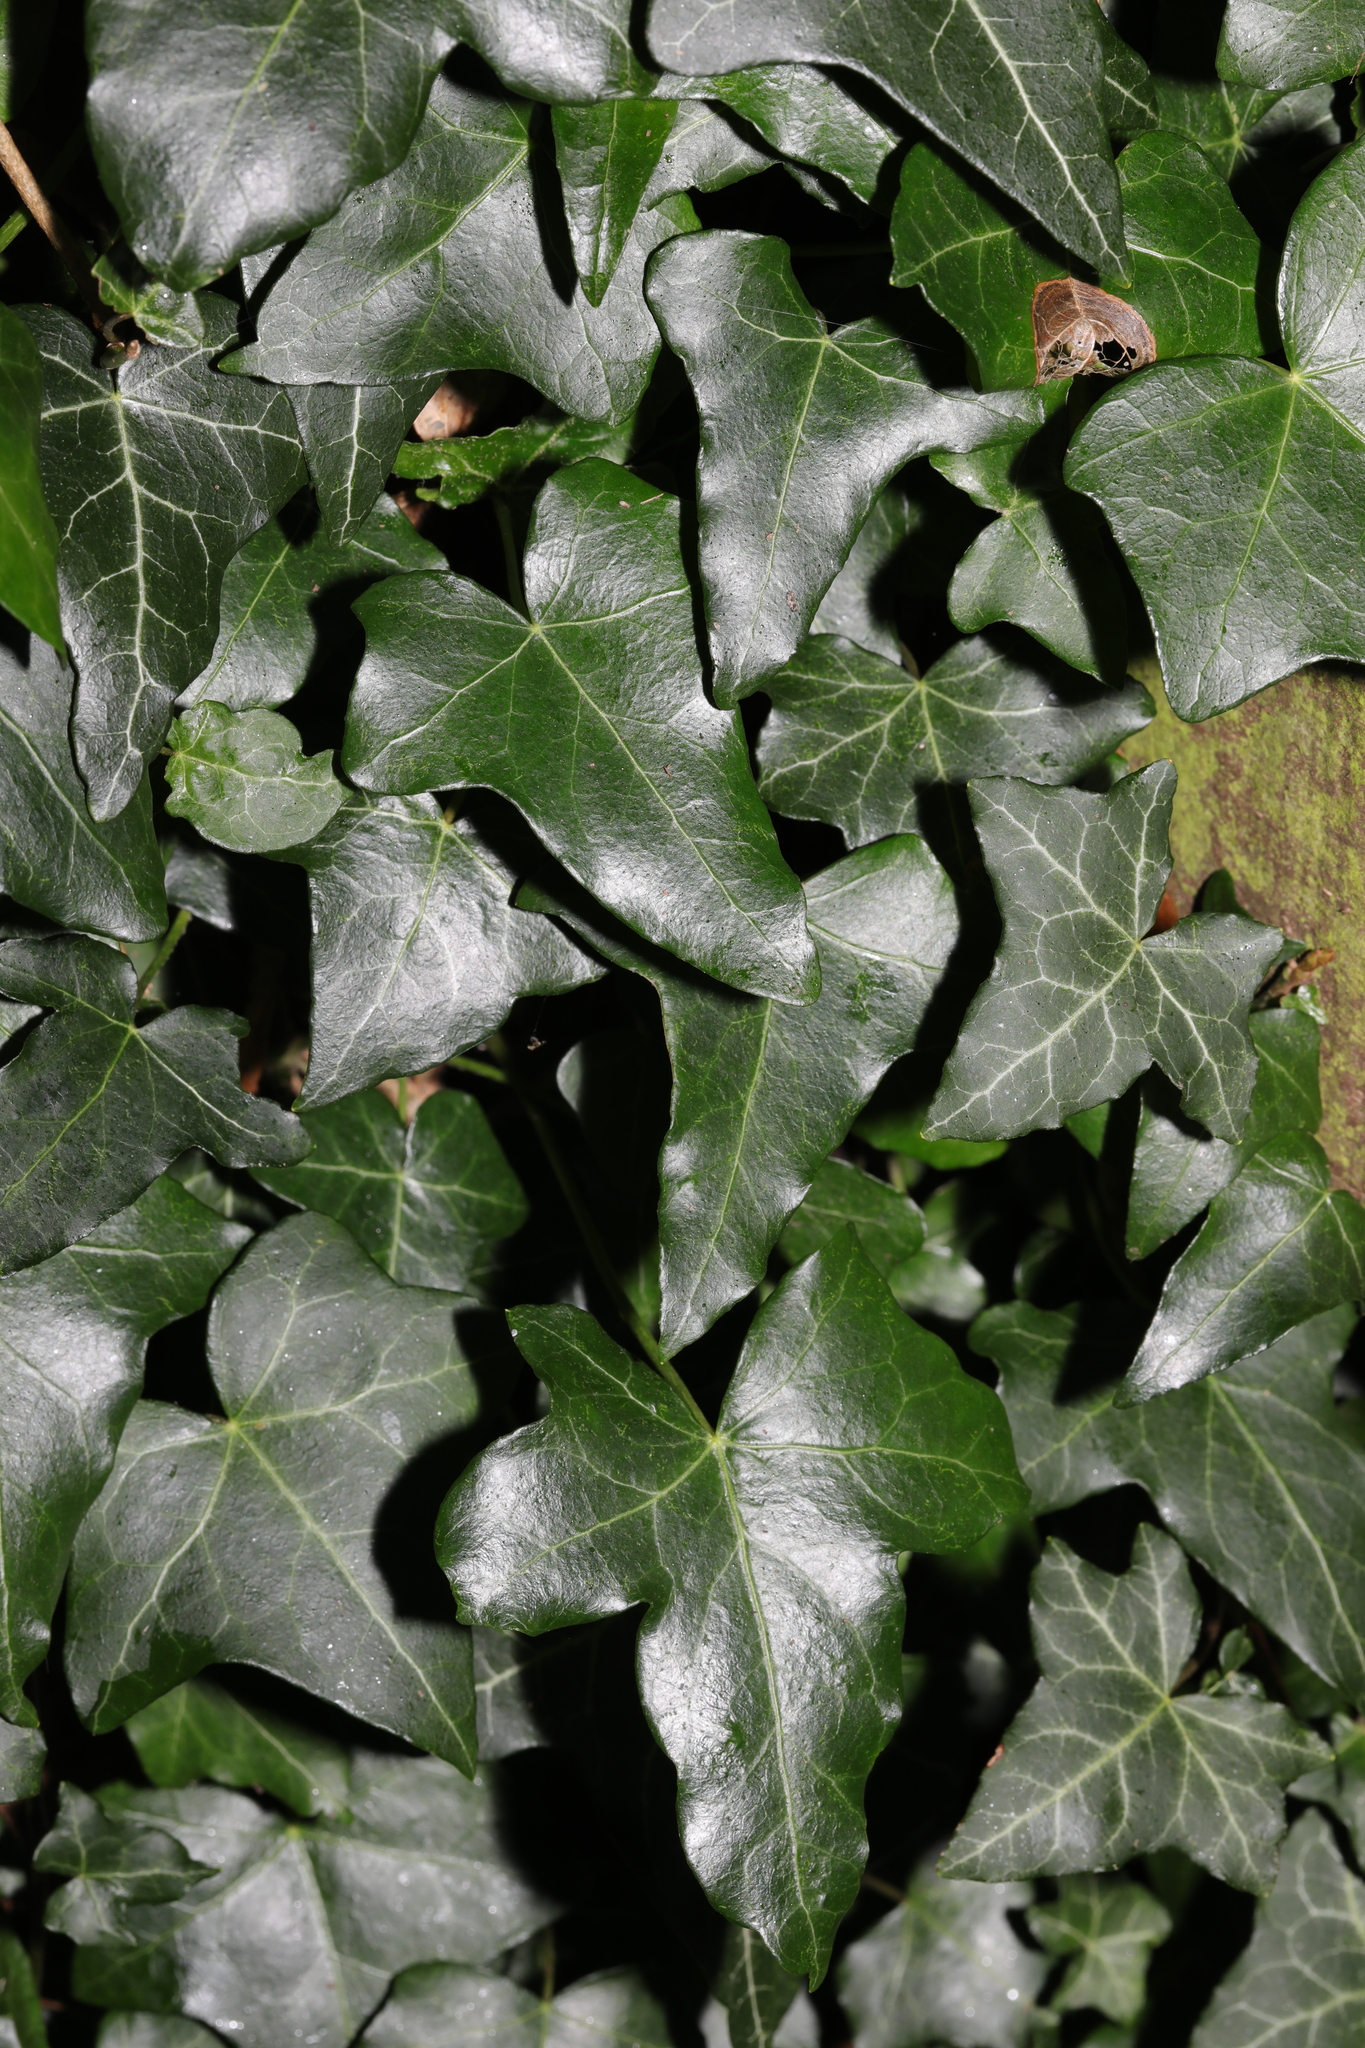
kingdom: Plantae
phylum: Tracheophyta
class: Magnoliopsida
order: Apiales
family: Araliaceae
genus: Hedera
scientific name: Hedera helix
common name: Ivy
